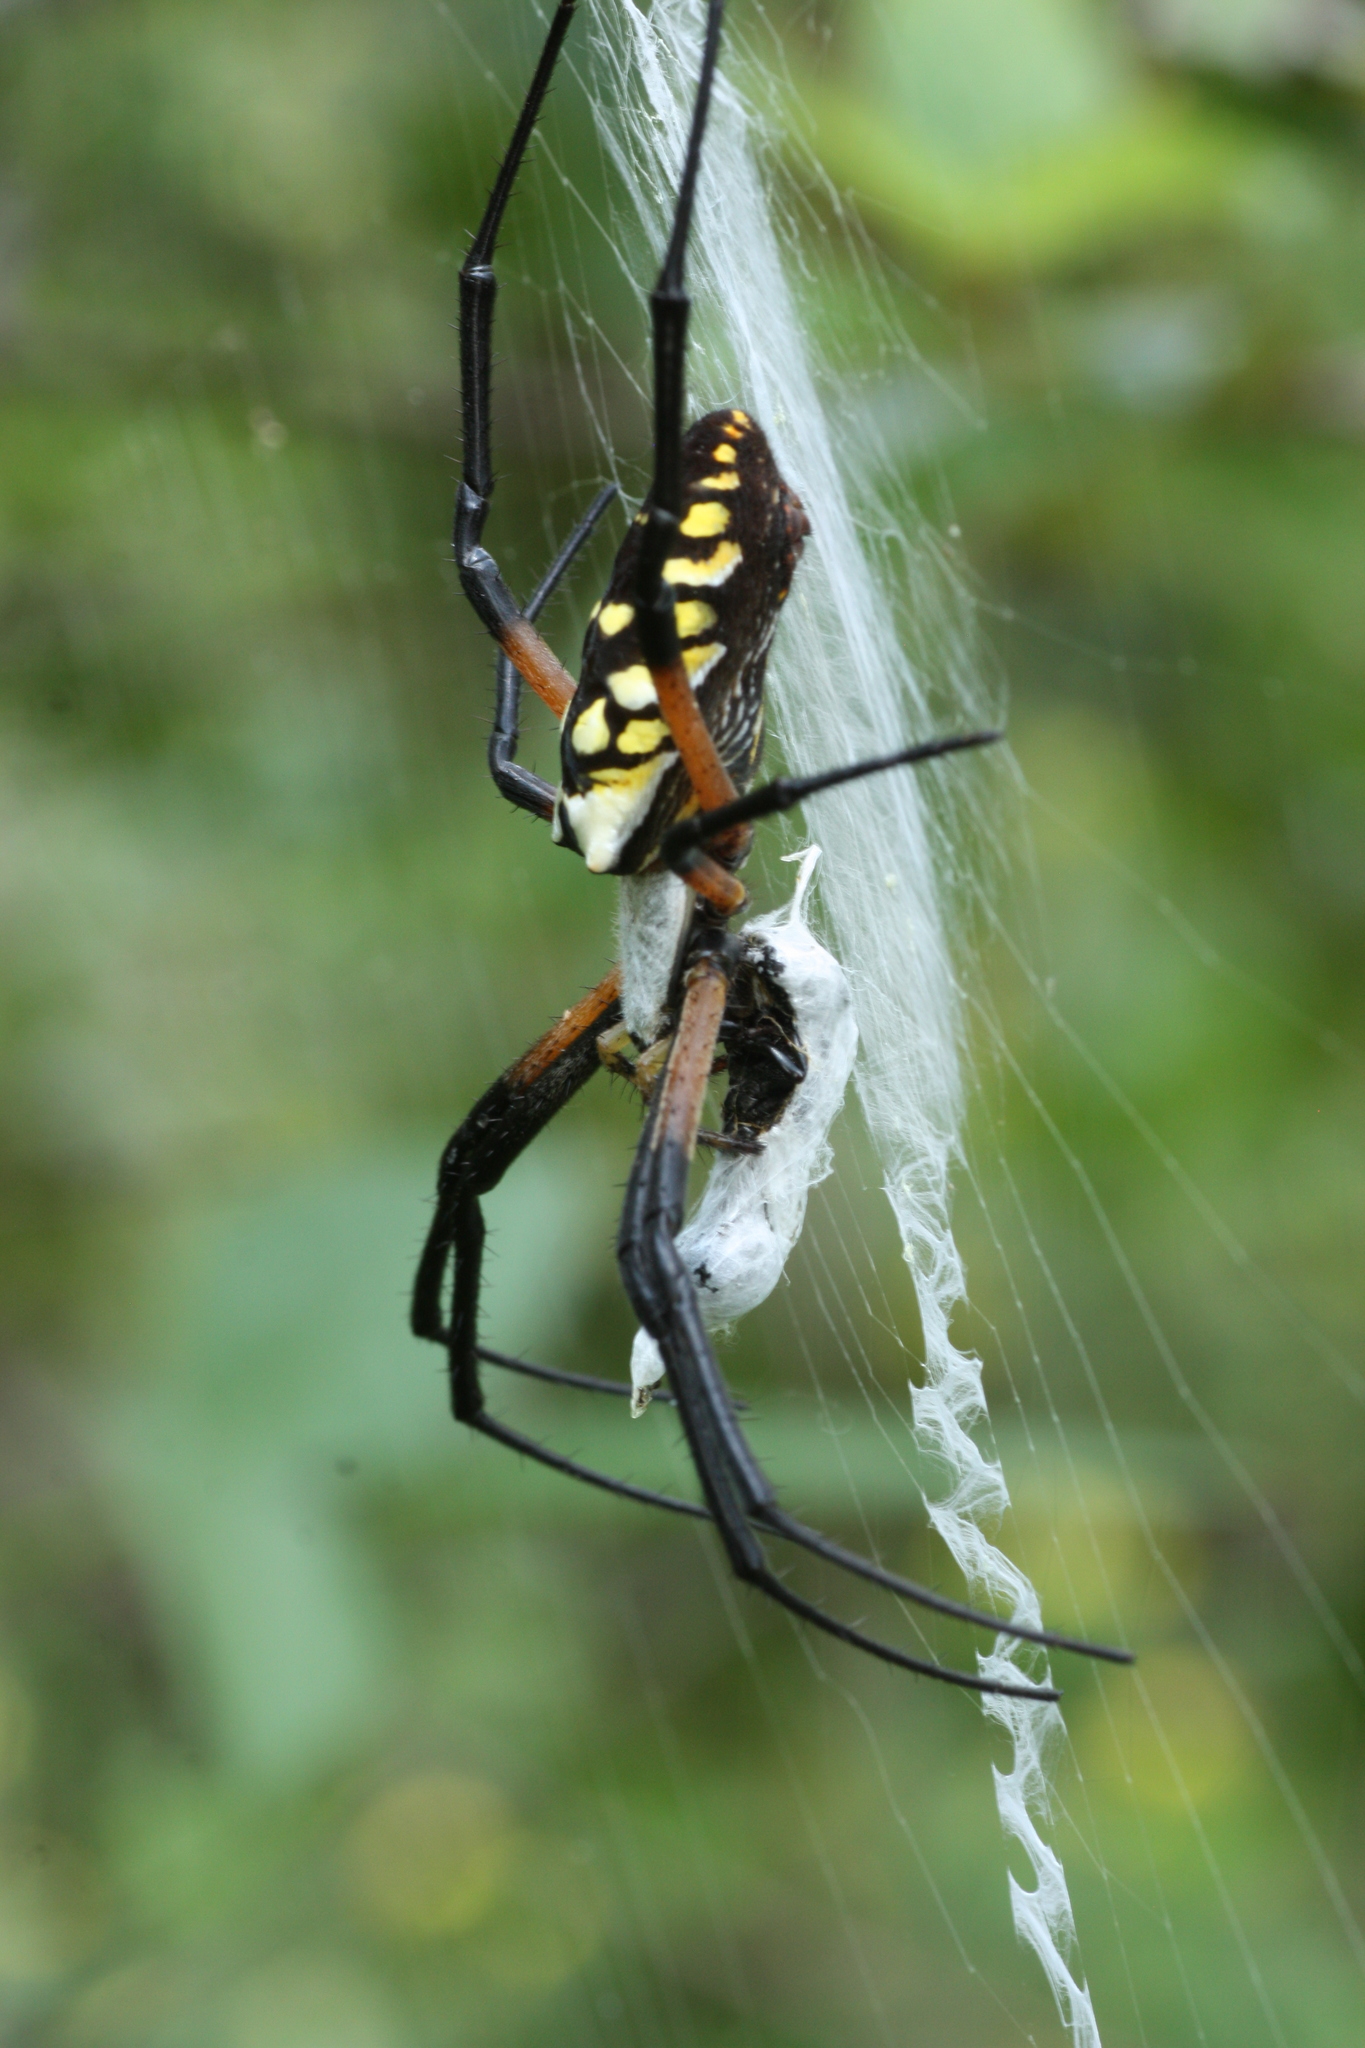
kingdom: Animalia
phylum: Arthropoda
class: Arachnida
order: Araneae
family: Araneidae
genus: Argiope
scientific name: Argiope aurantia
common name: Orb weavers
